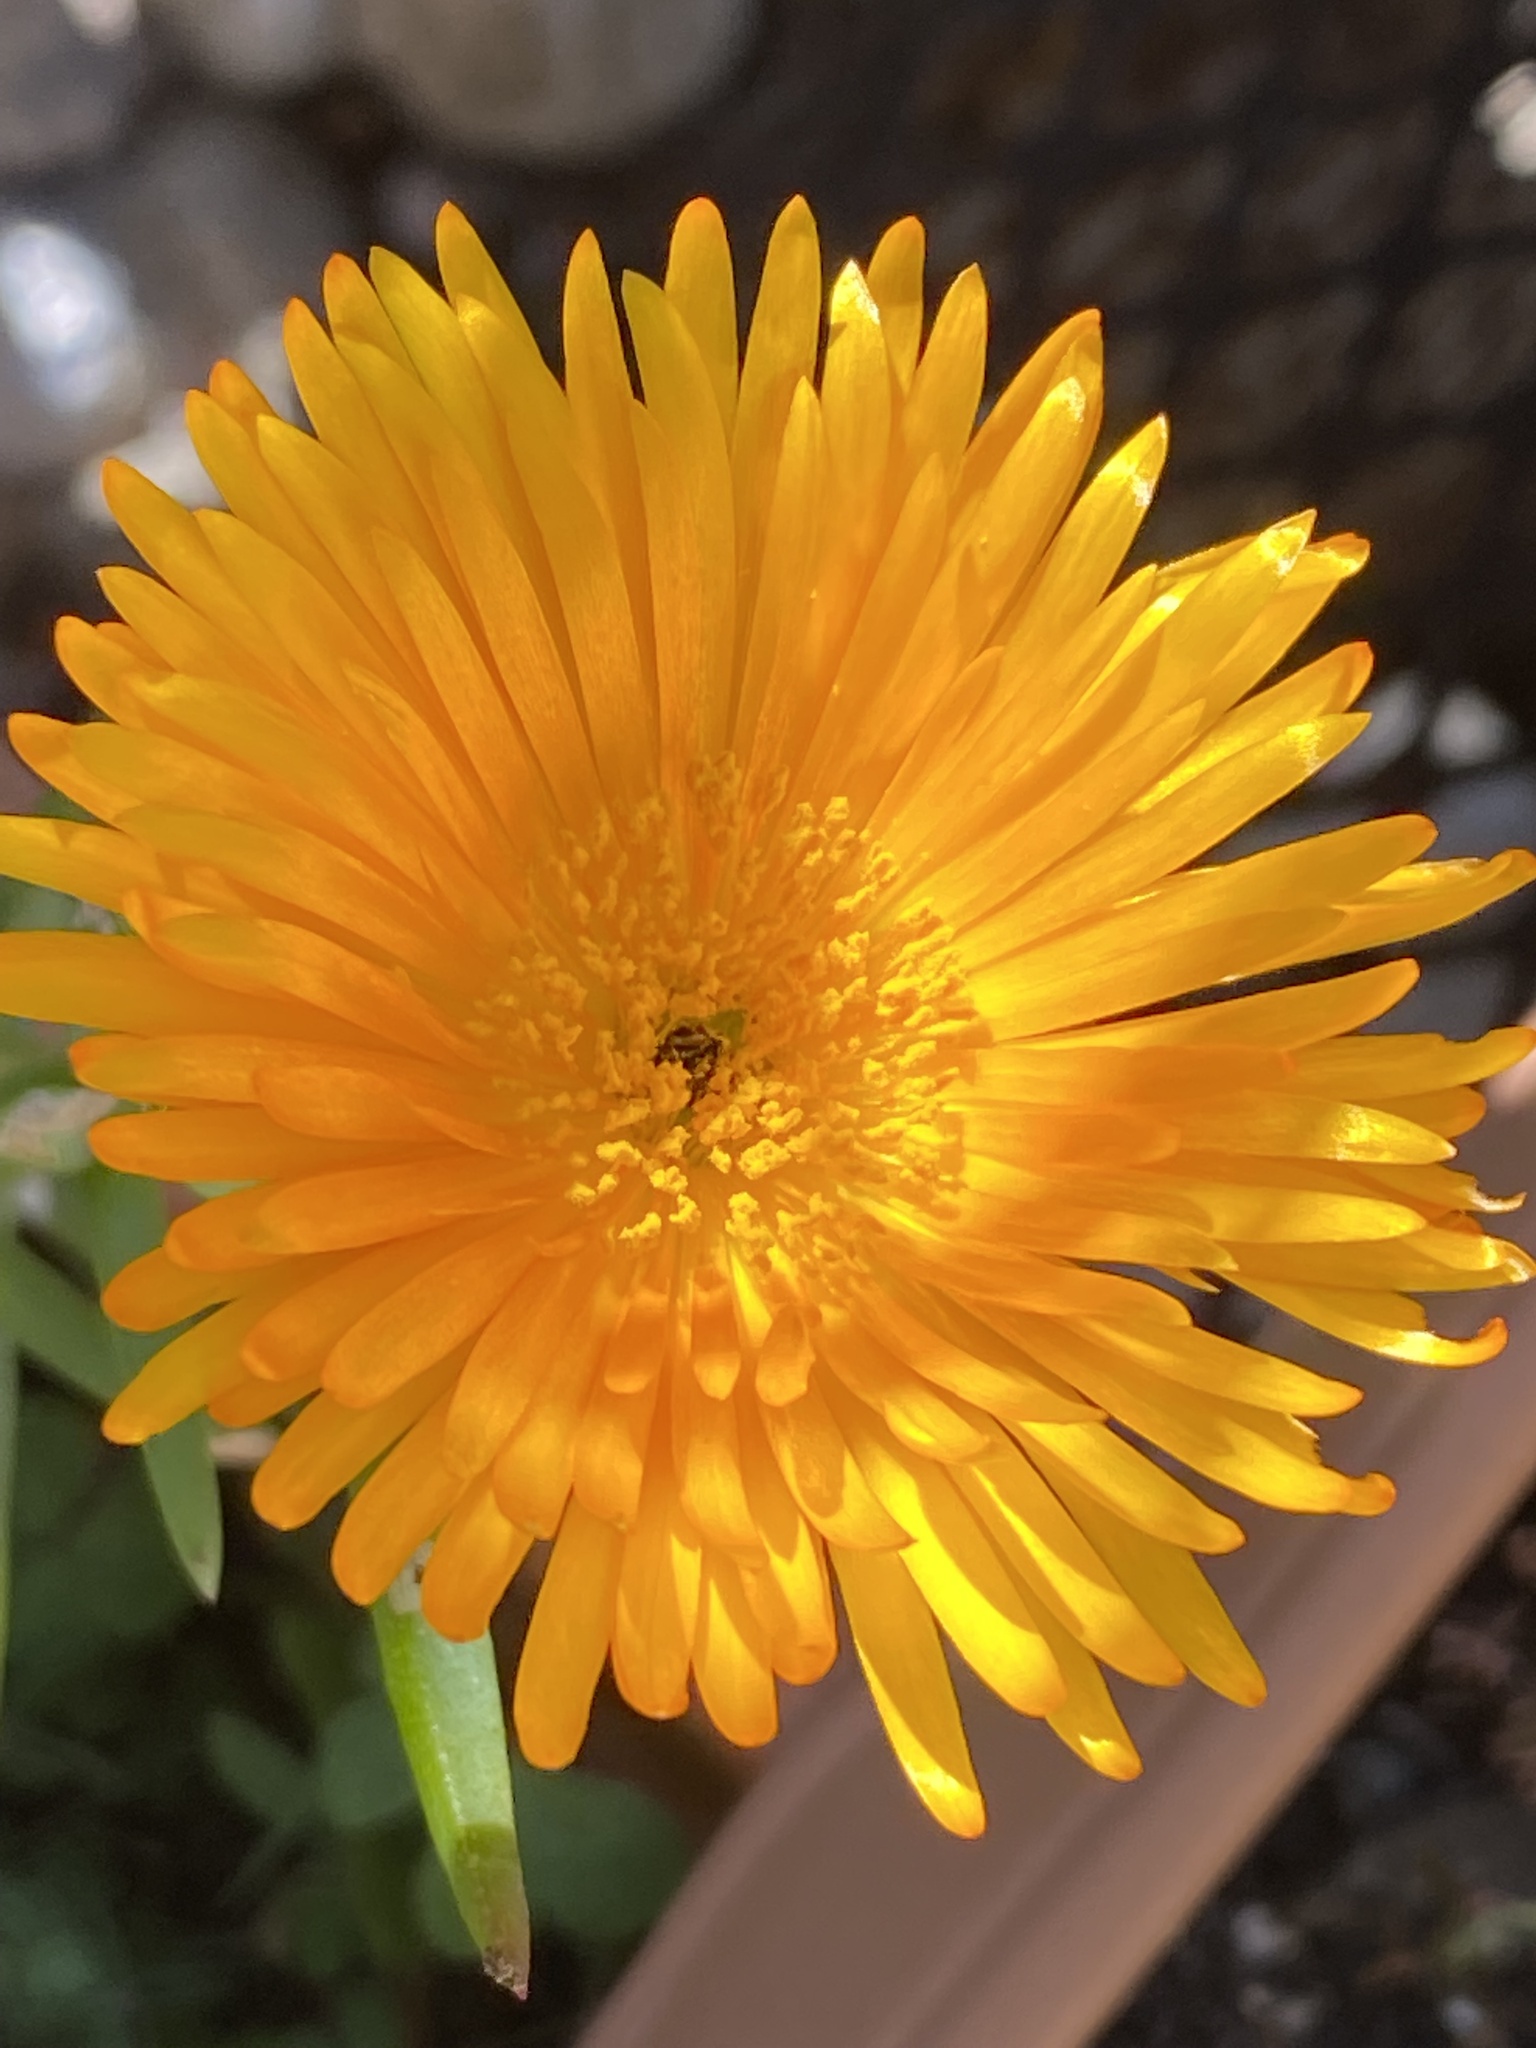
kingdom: Plantae
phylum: Tracheophyta
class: Magnoliopsida
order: Caryophyllales
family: Aizoaceae
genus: Lampranthus
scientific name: Lampranthus fergusoniae
